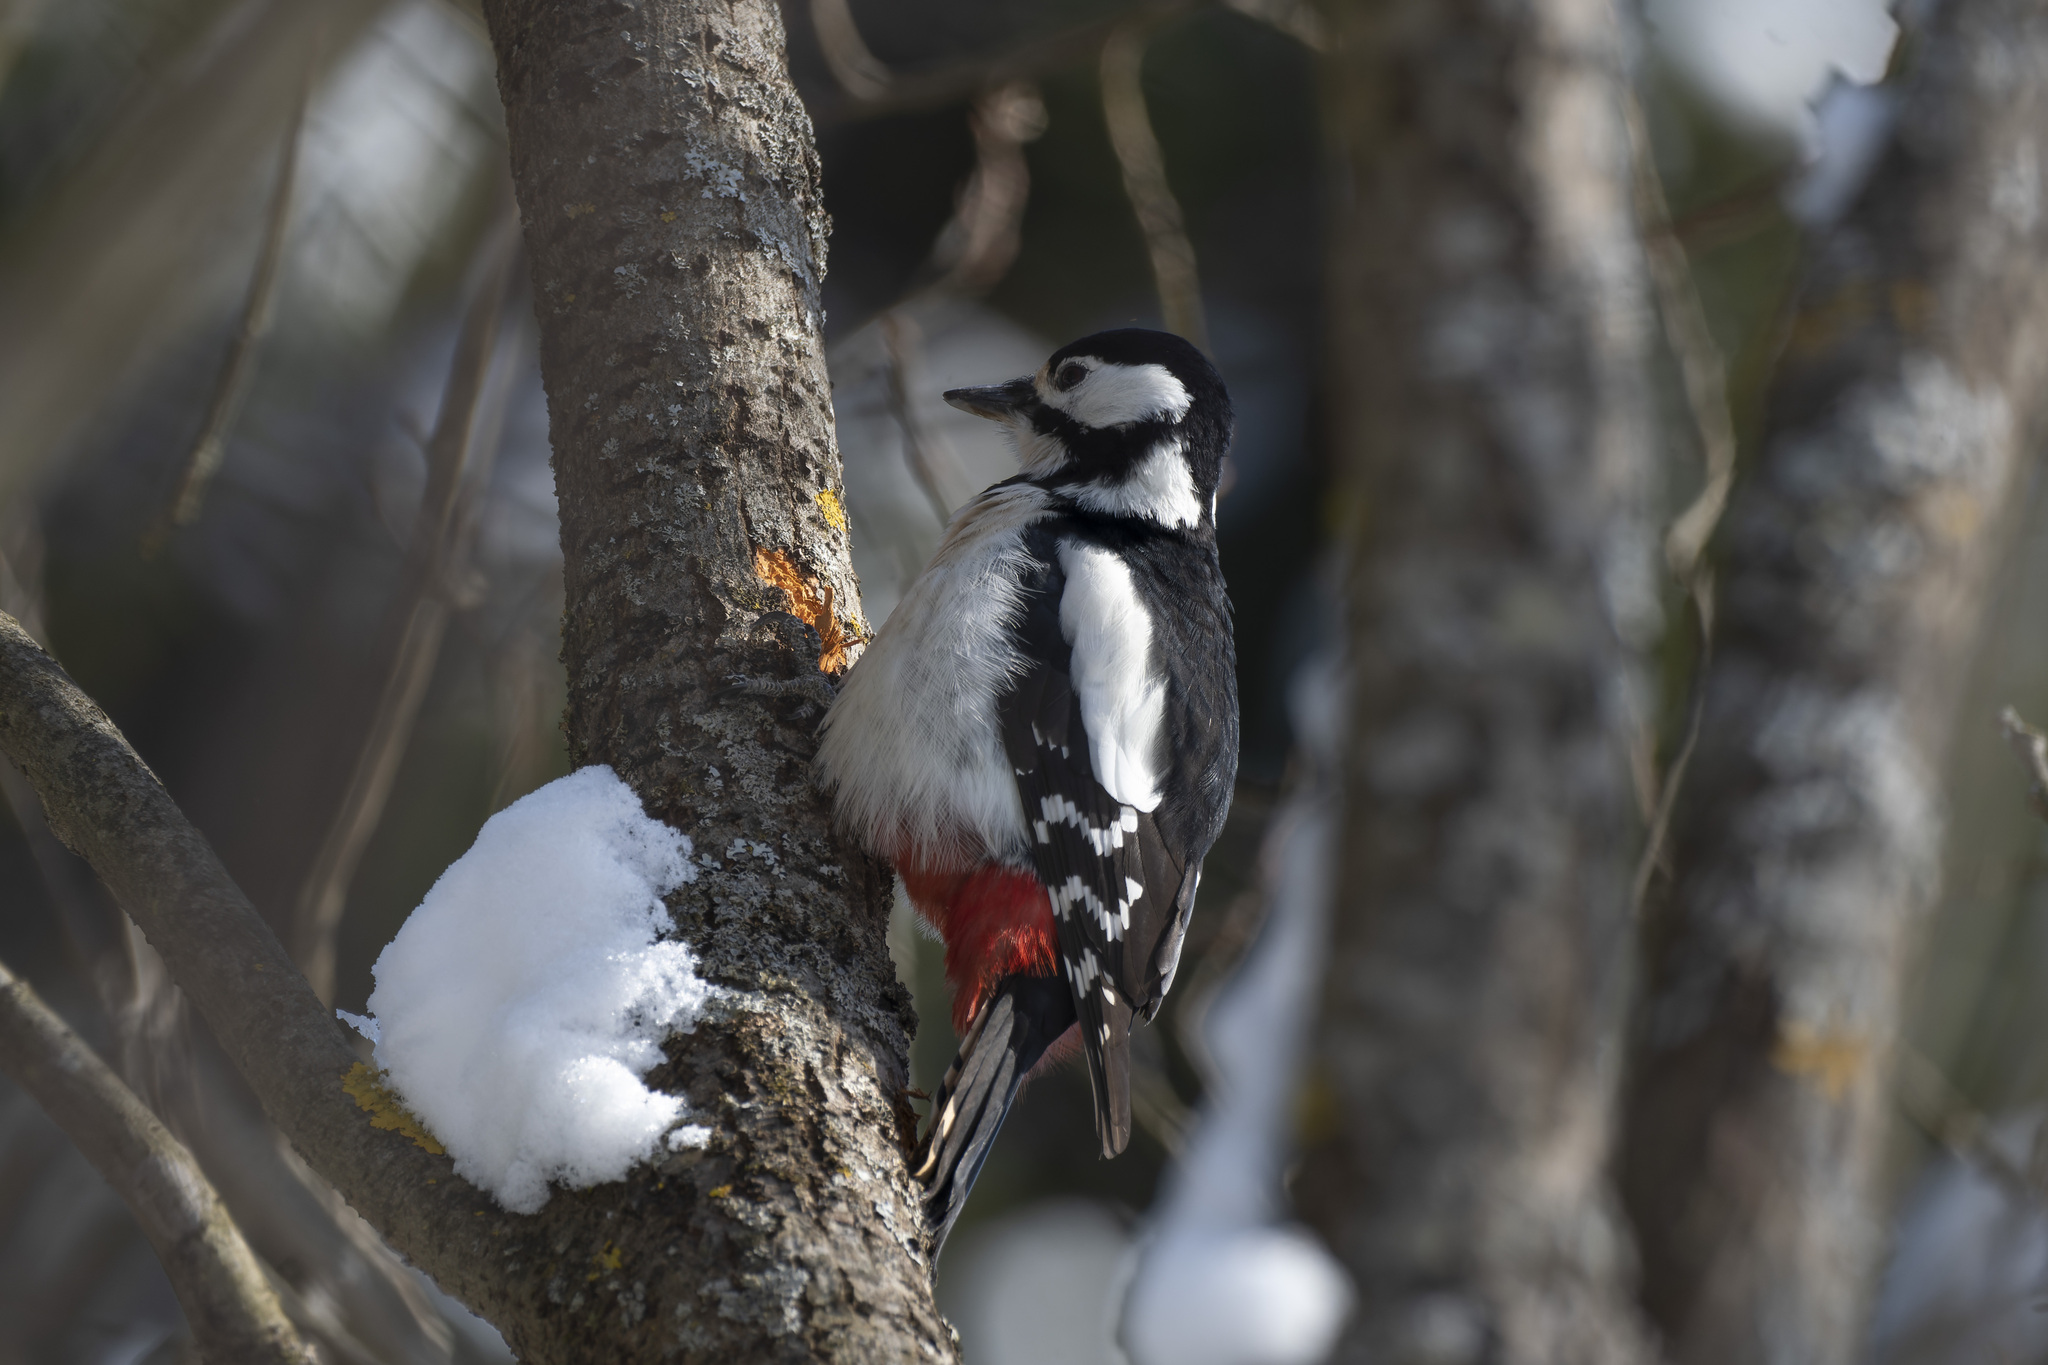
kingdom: Animalia
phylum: Chordata
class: Aves
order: Piciformes
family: Picidae
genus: Dendrocopos
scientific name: Dendrocopos major
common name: Great spotted woodpecker
